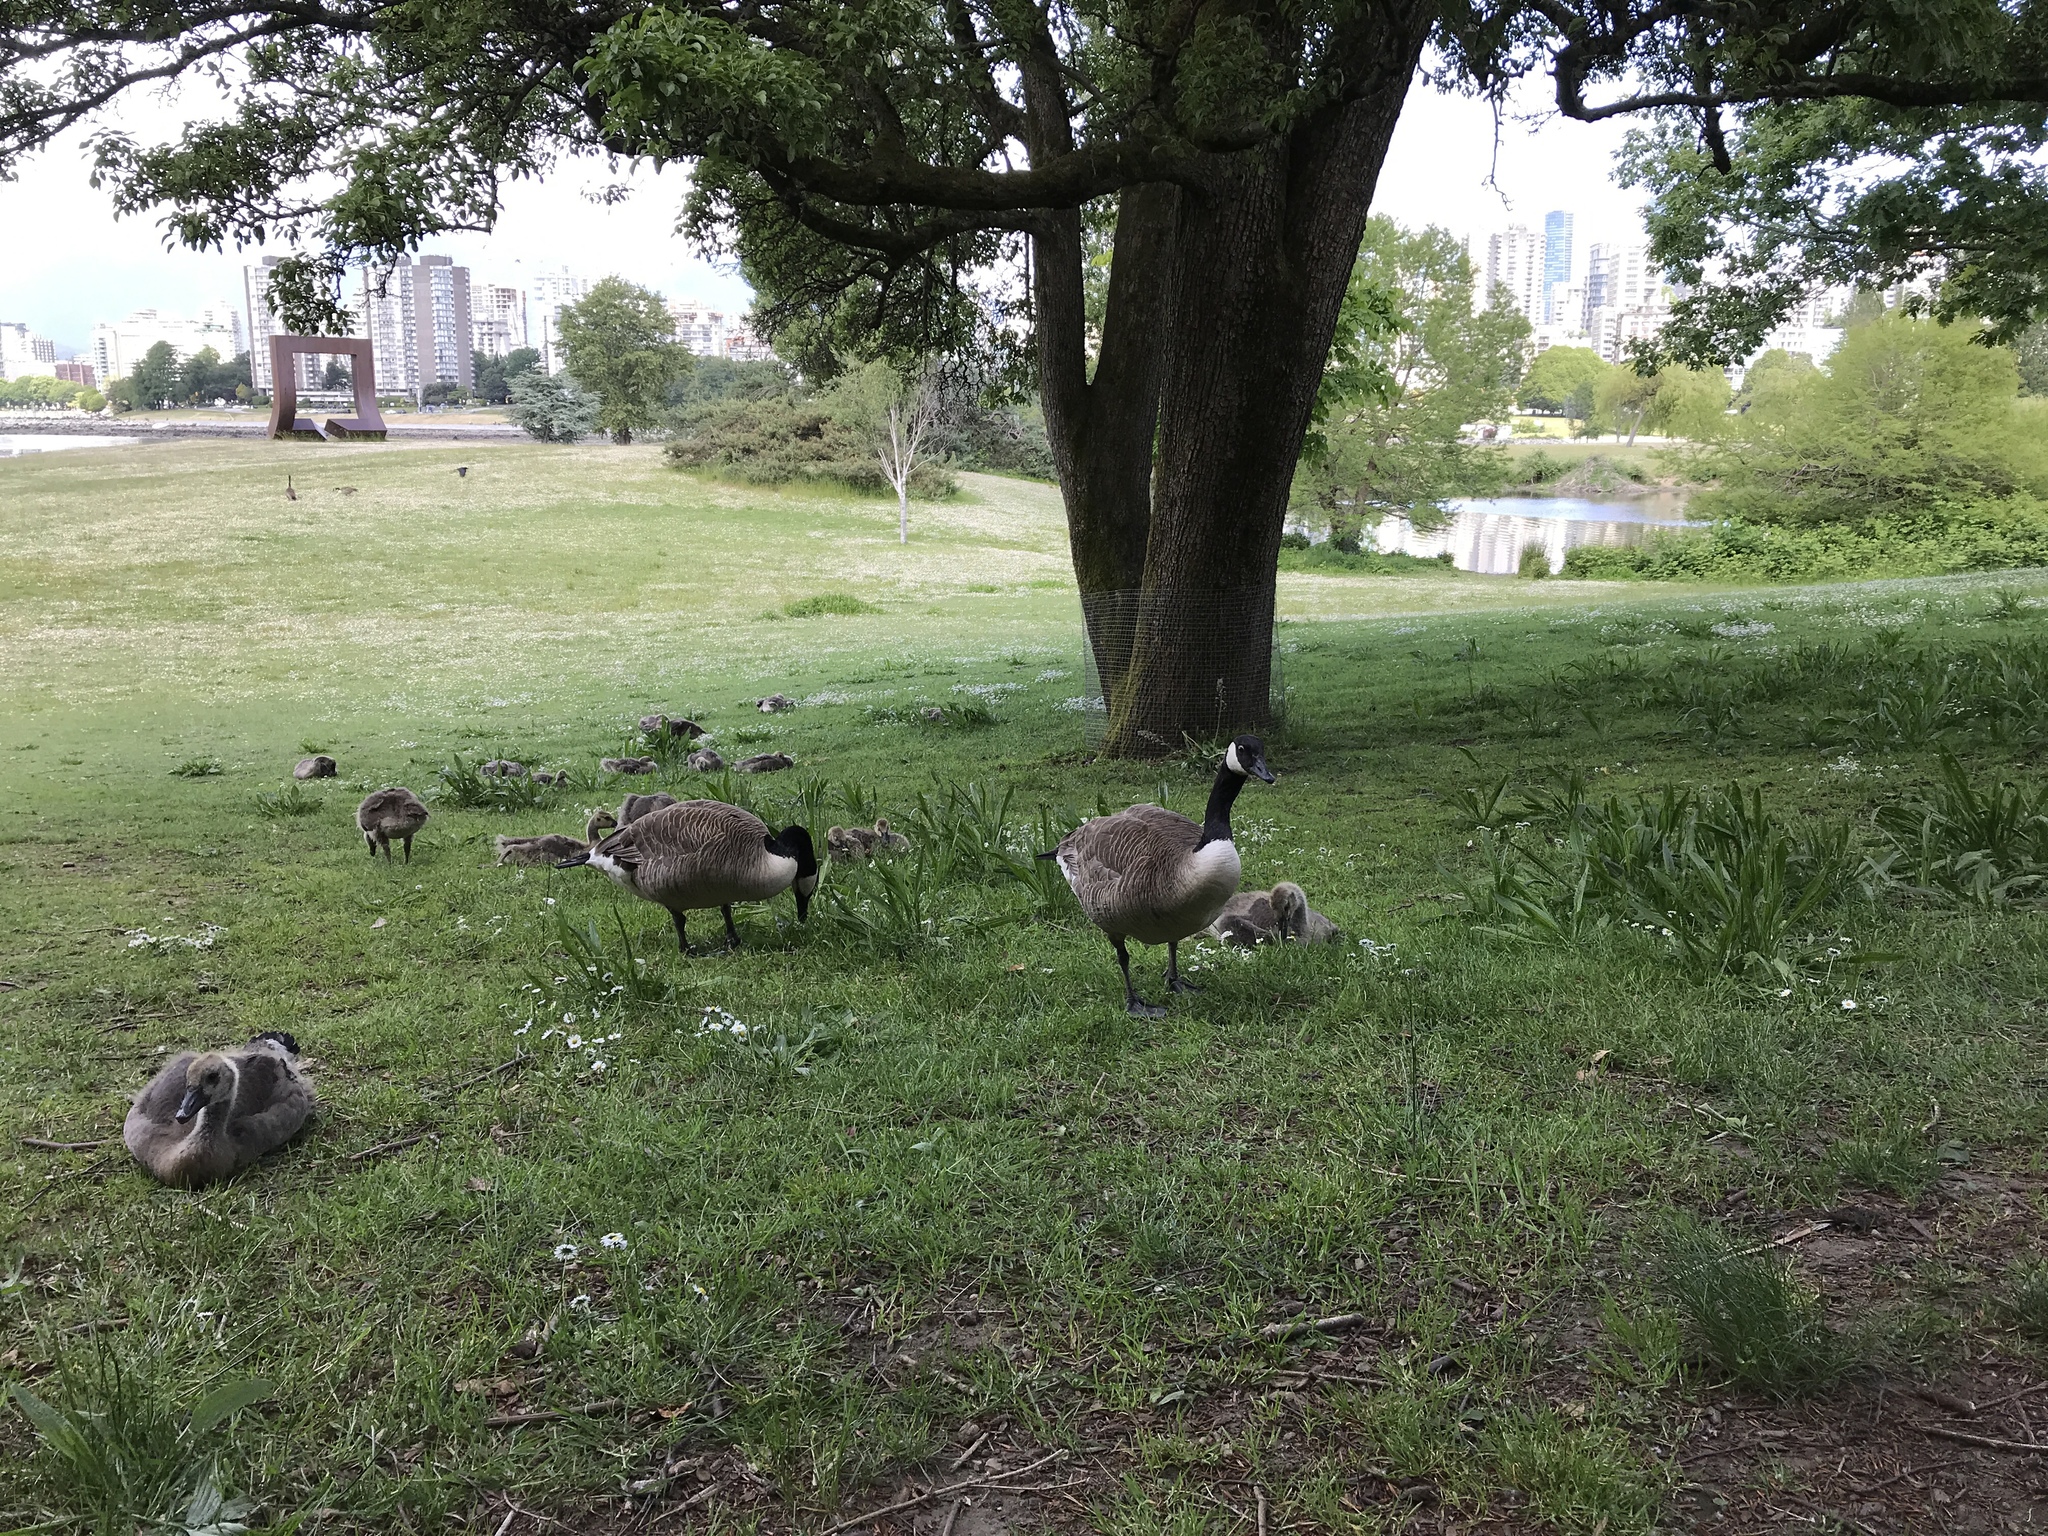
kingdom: Animalia
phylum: Chordata
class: Aves
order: Anseriformes
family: Anatidae
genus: Branta
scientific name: Branta canadensis
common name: Canada goose
